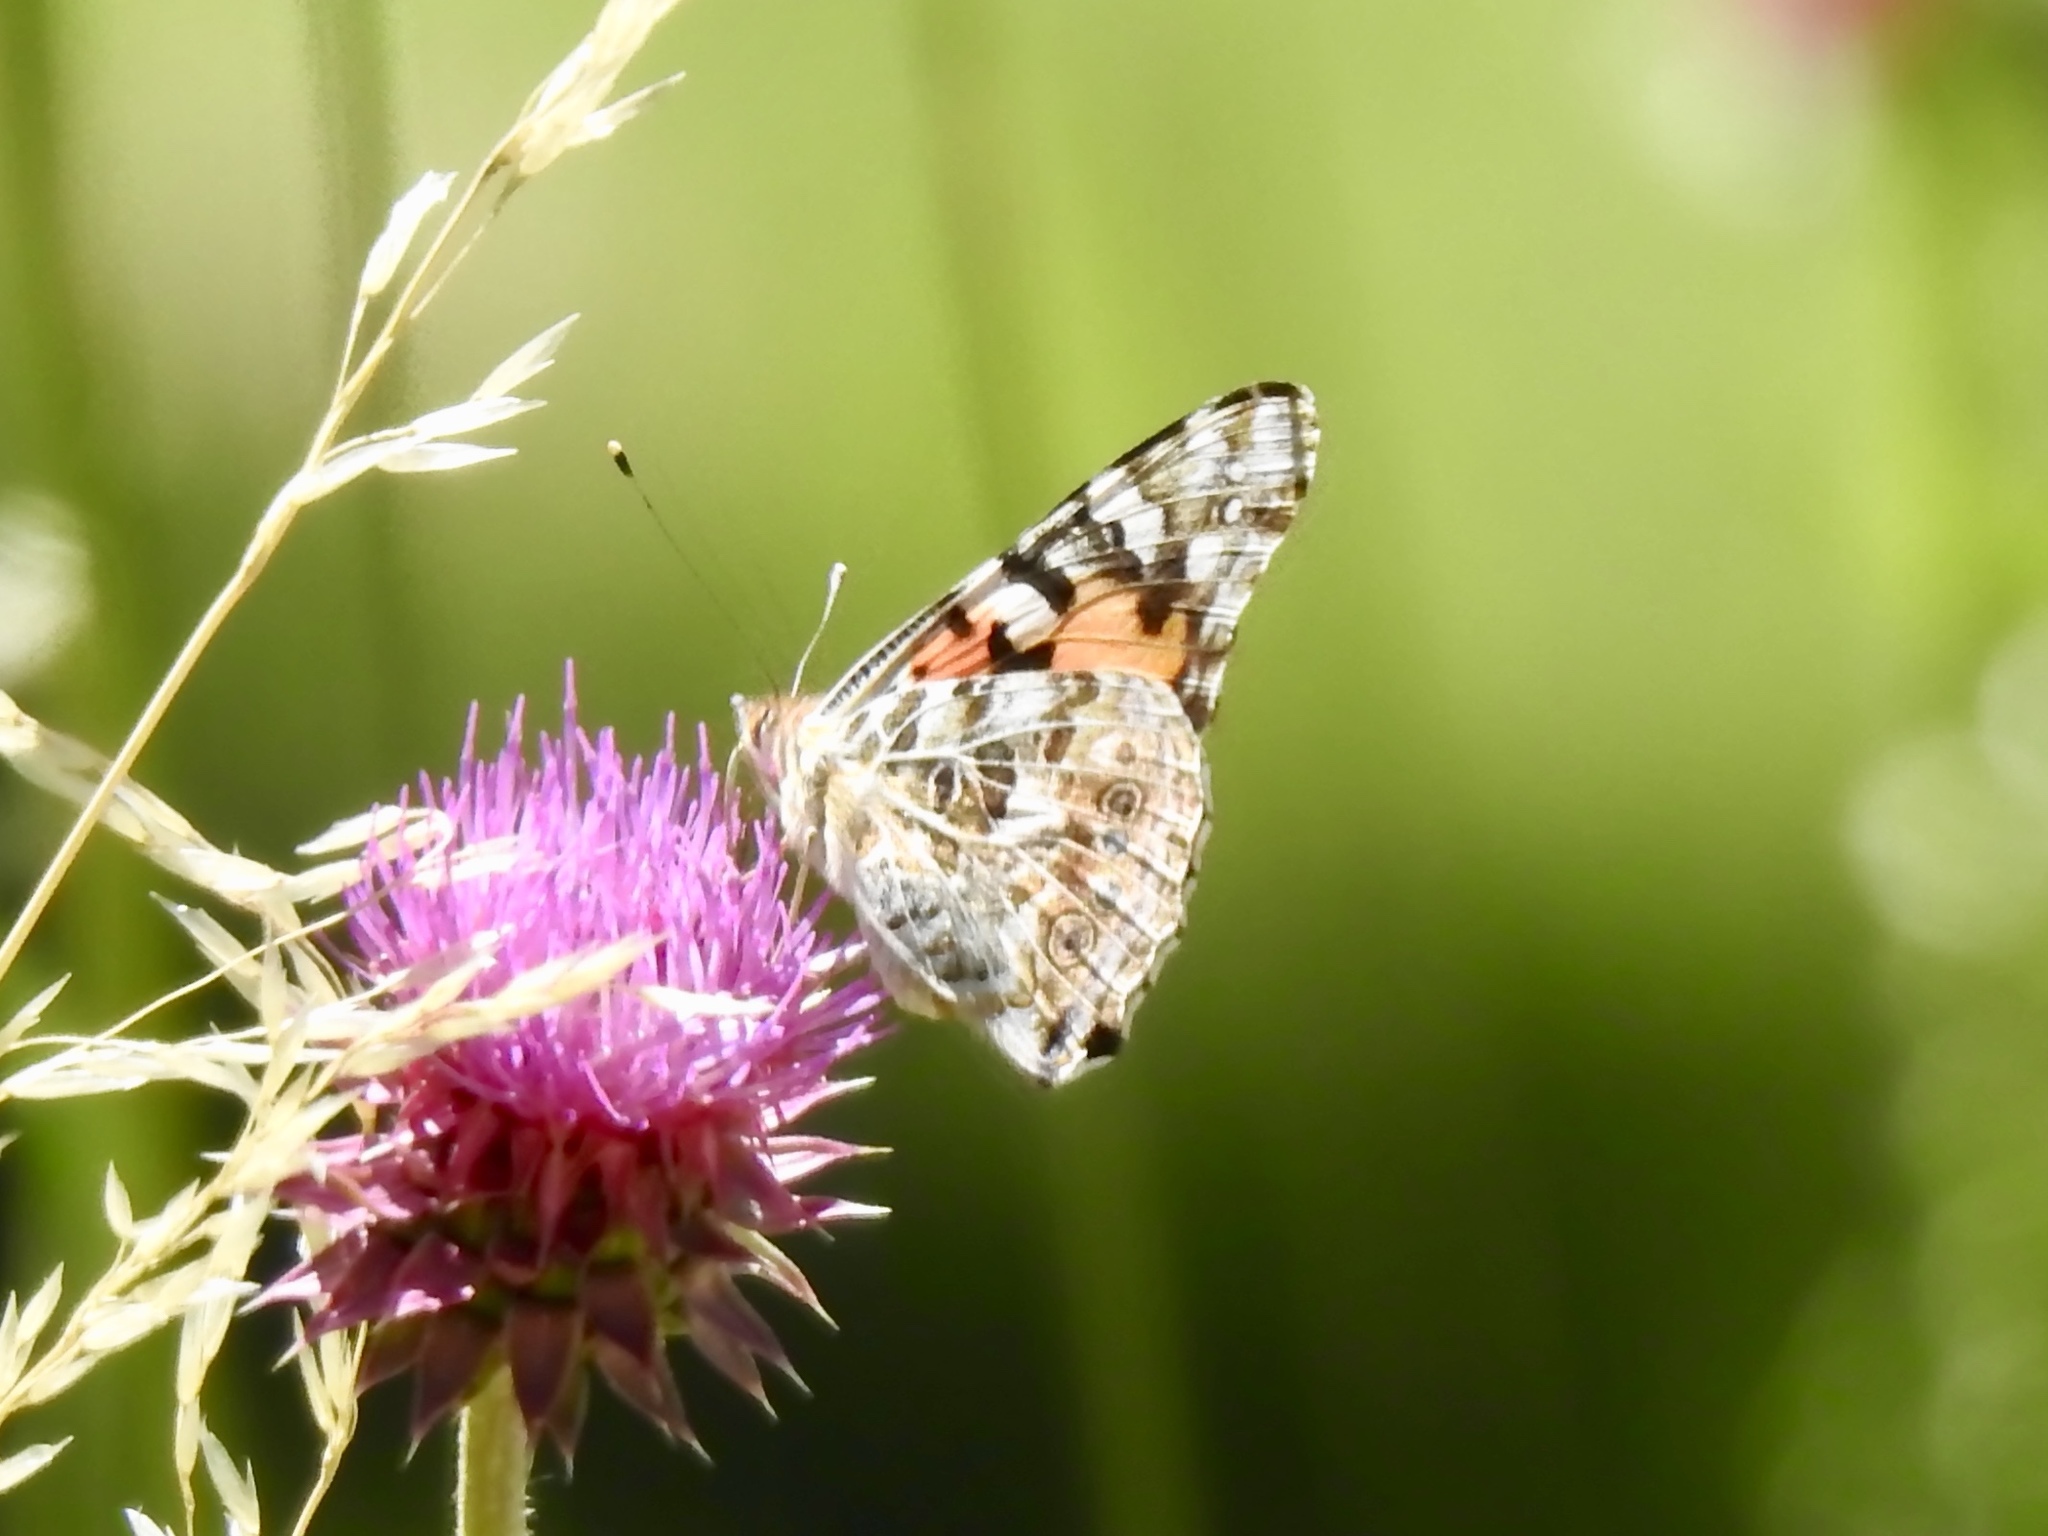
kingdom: Animalia
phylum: Arthropoda
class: Insecta
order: Lepidoptera
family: Nymphalidae
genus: Vanessa
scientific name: Vanessa cardui
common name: Painted lady
